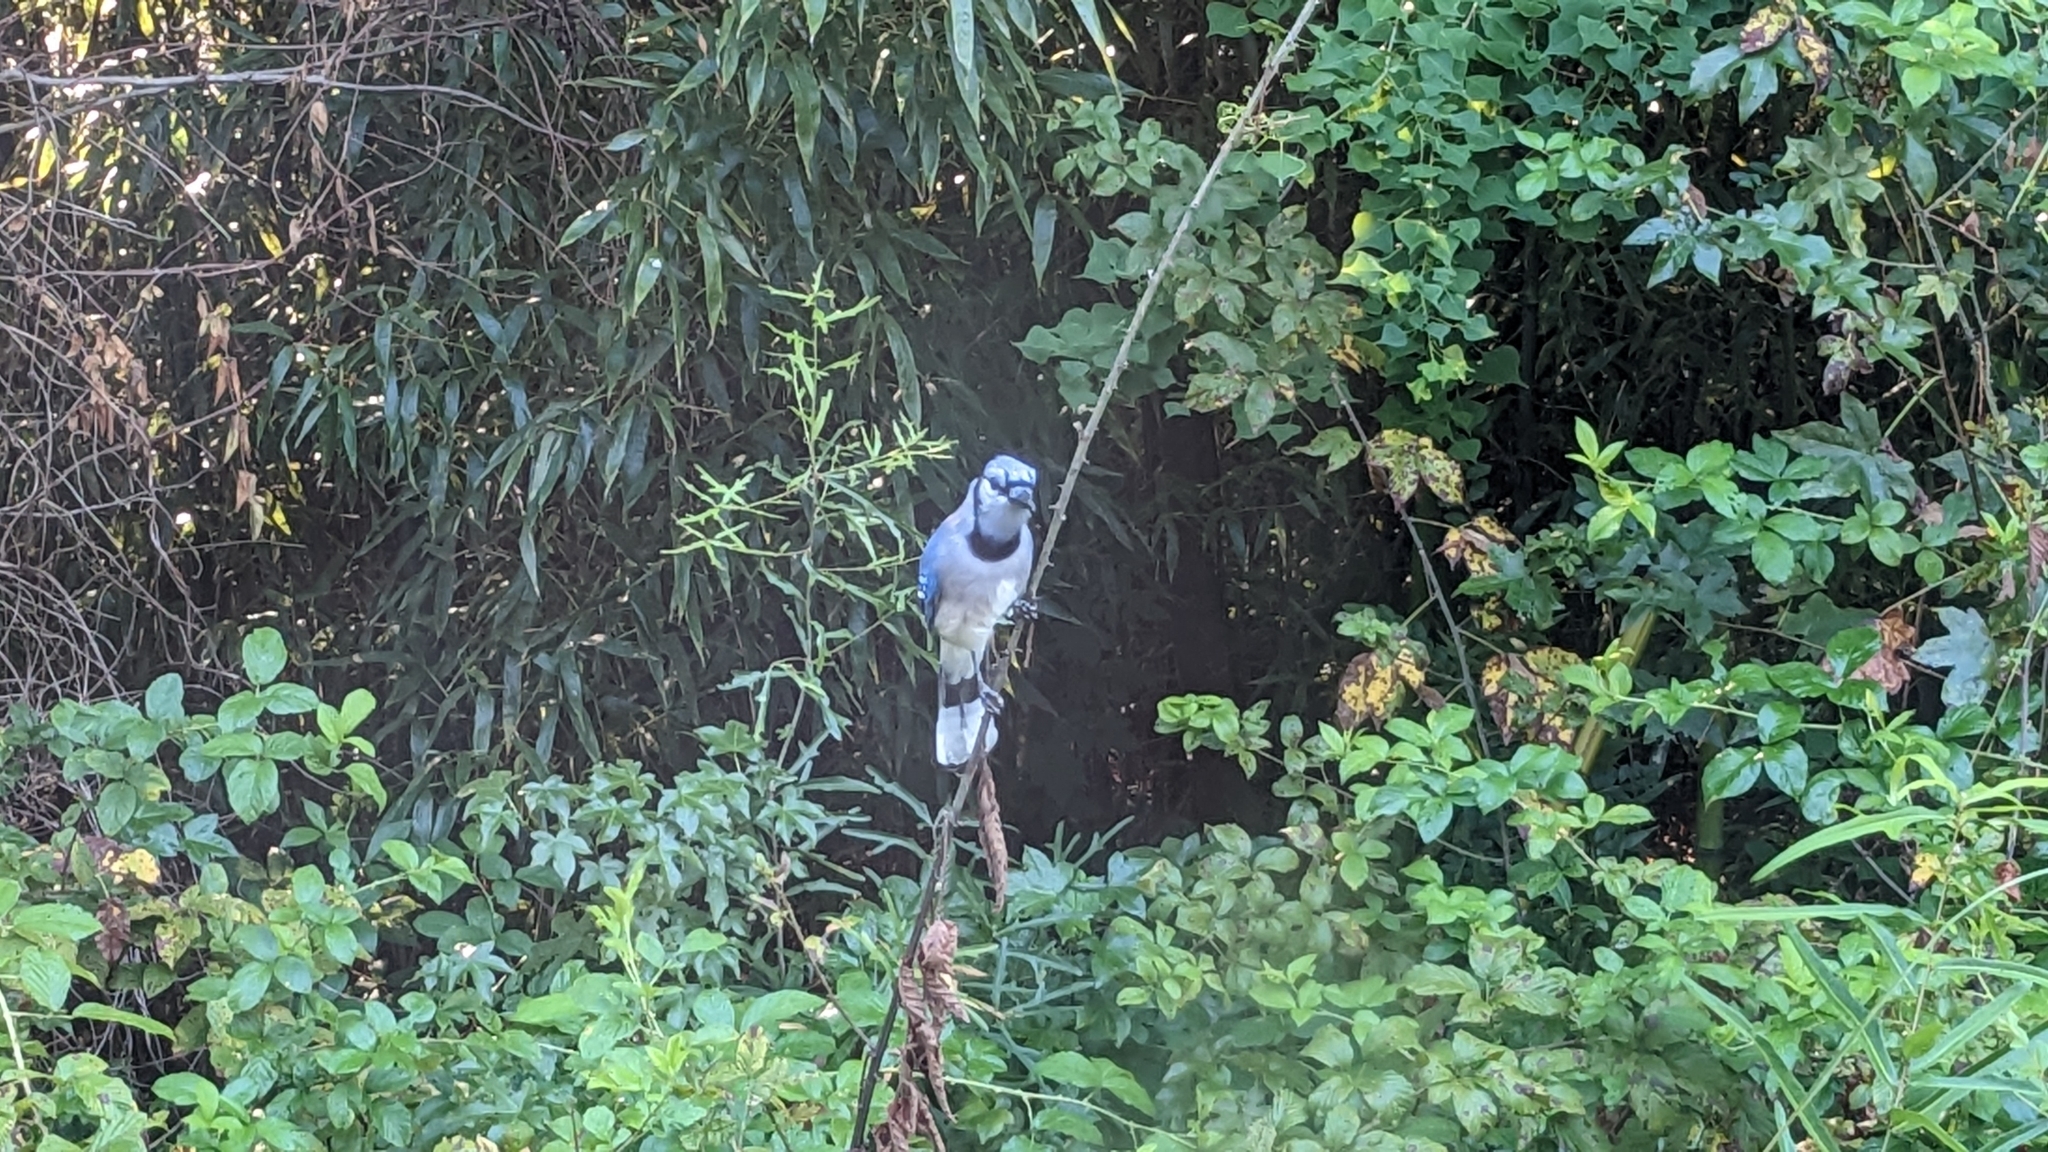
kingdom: Animalia
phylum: Chordata
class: Aves
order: Passeriformes
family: Corvidae
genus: Cyanocitta
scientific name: Cyanocitta cristata
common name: Blue jay
